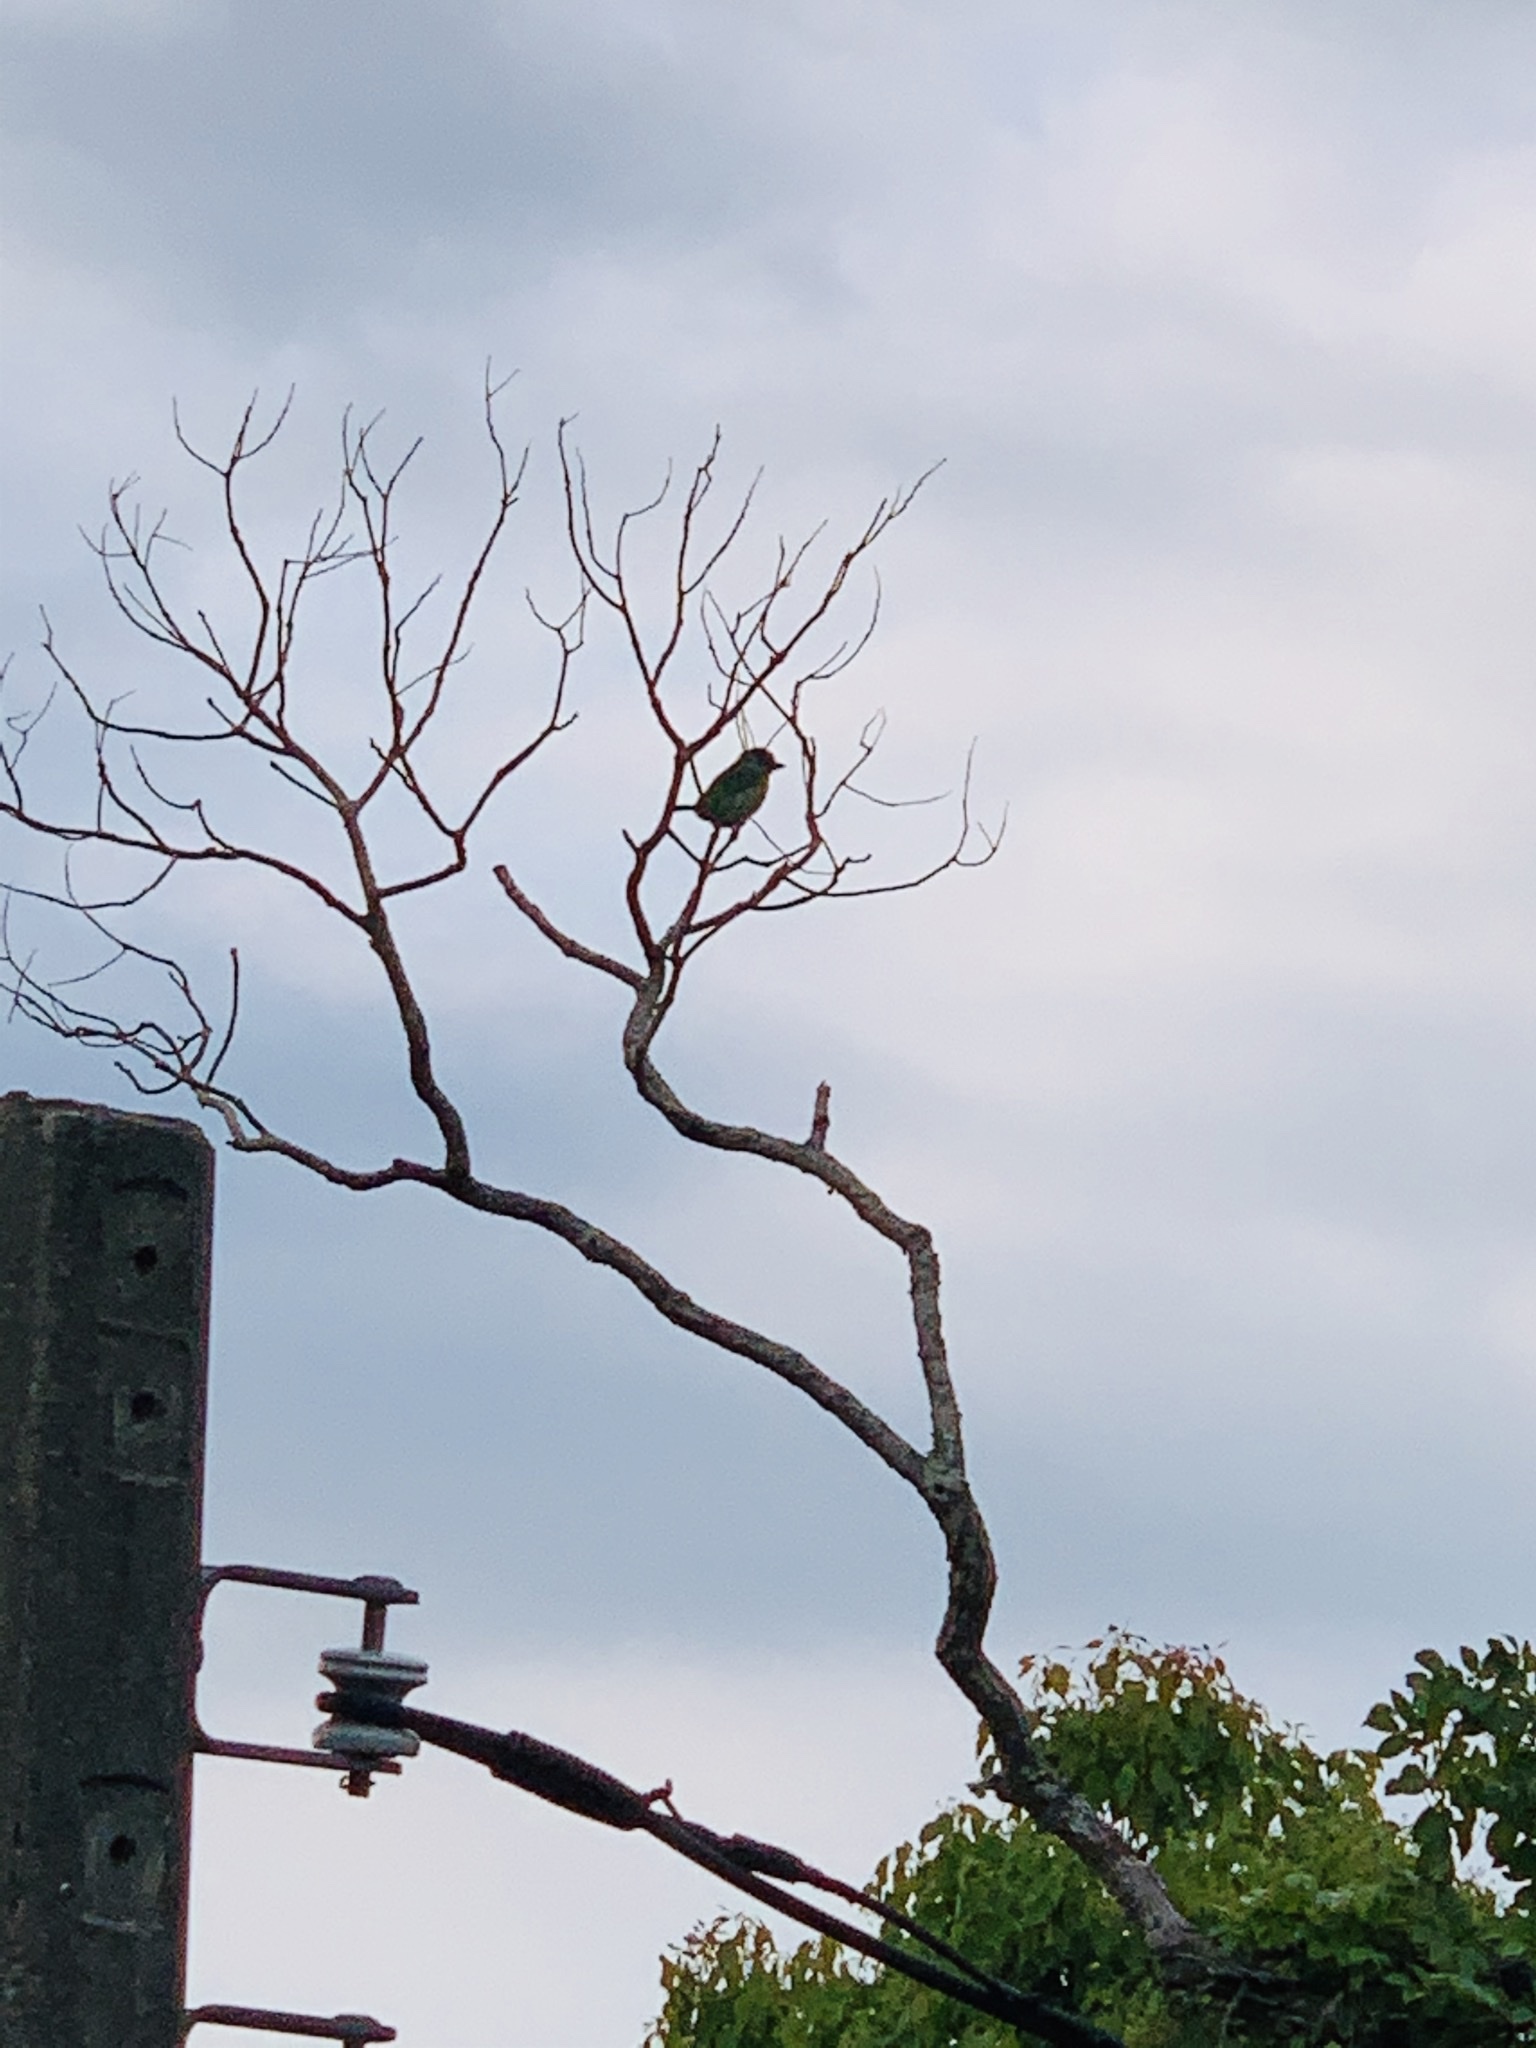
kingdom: Animalia
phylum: Chordata
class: Aves
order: Piciformes
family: Megalaimidae
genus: Psilopogon
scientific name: Psilopogon nuchalis
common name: Taiwan barbet
